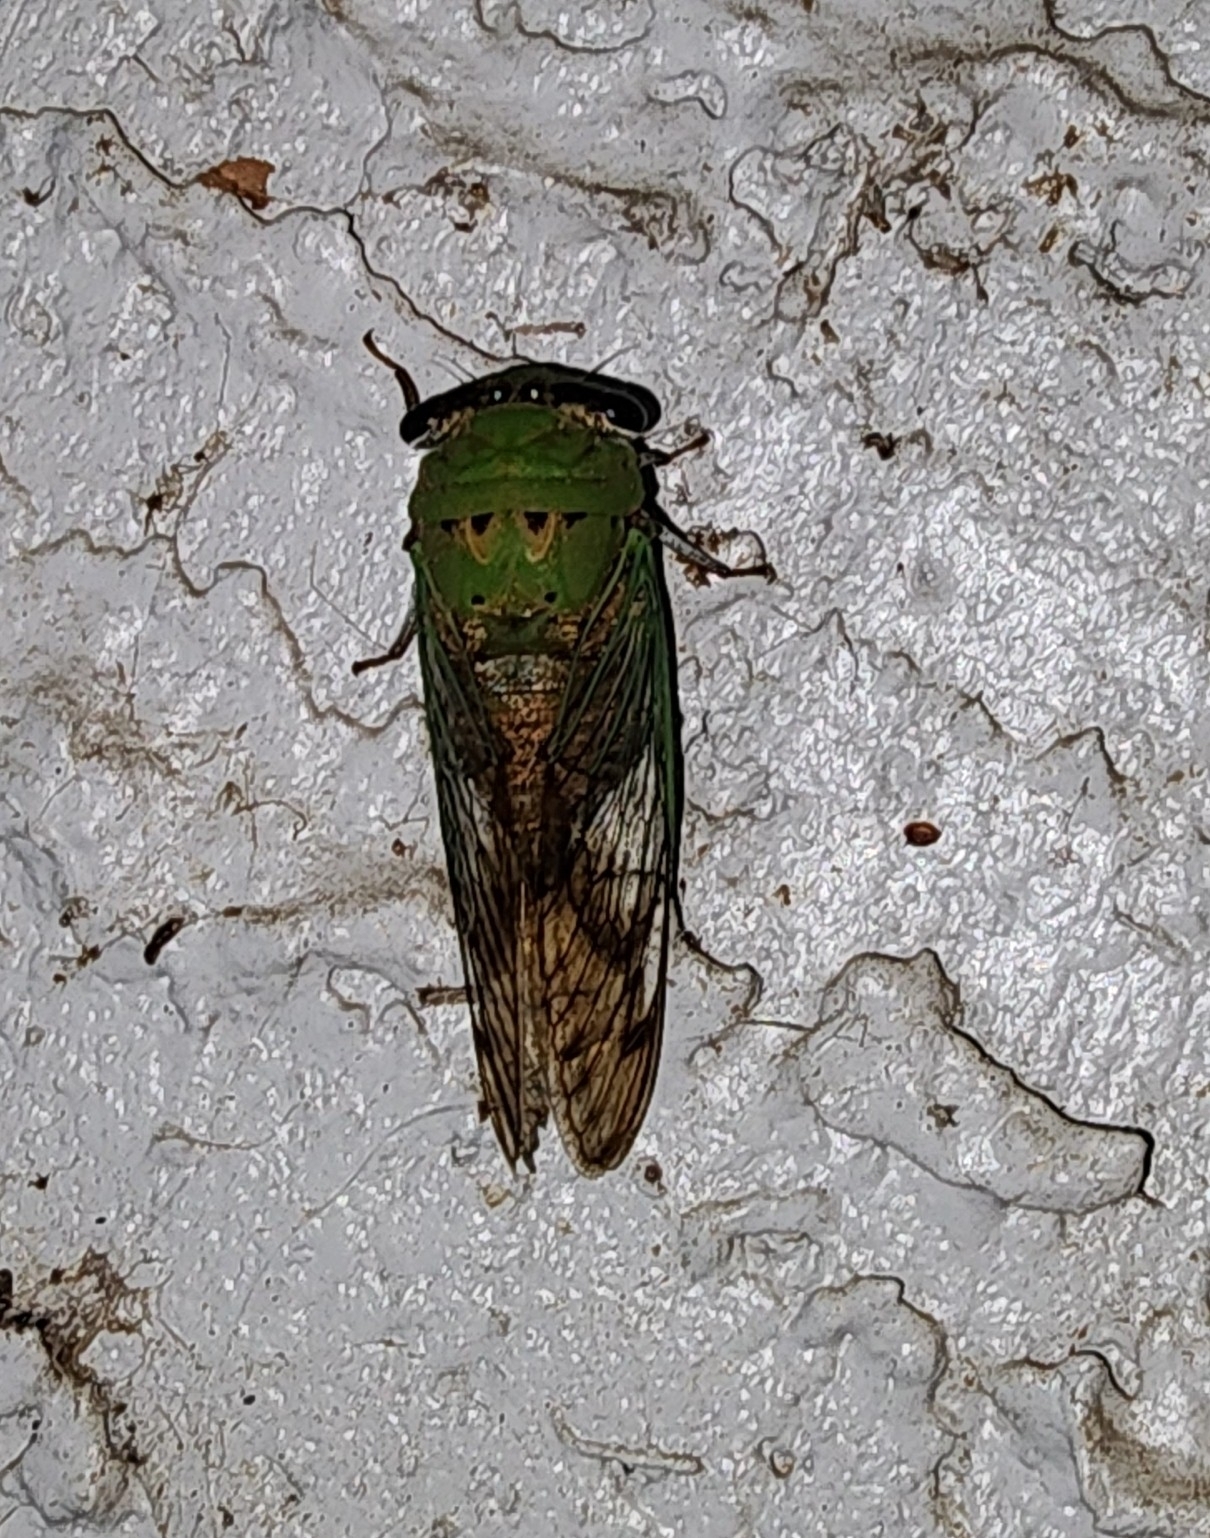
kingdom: Animalia
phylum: Arthropoda
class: Insecta
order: Hemiptera
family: Cicadidae
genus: Neotibicen
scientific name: Neotibicen superbus
